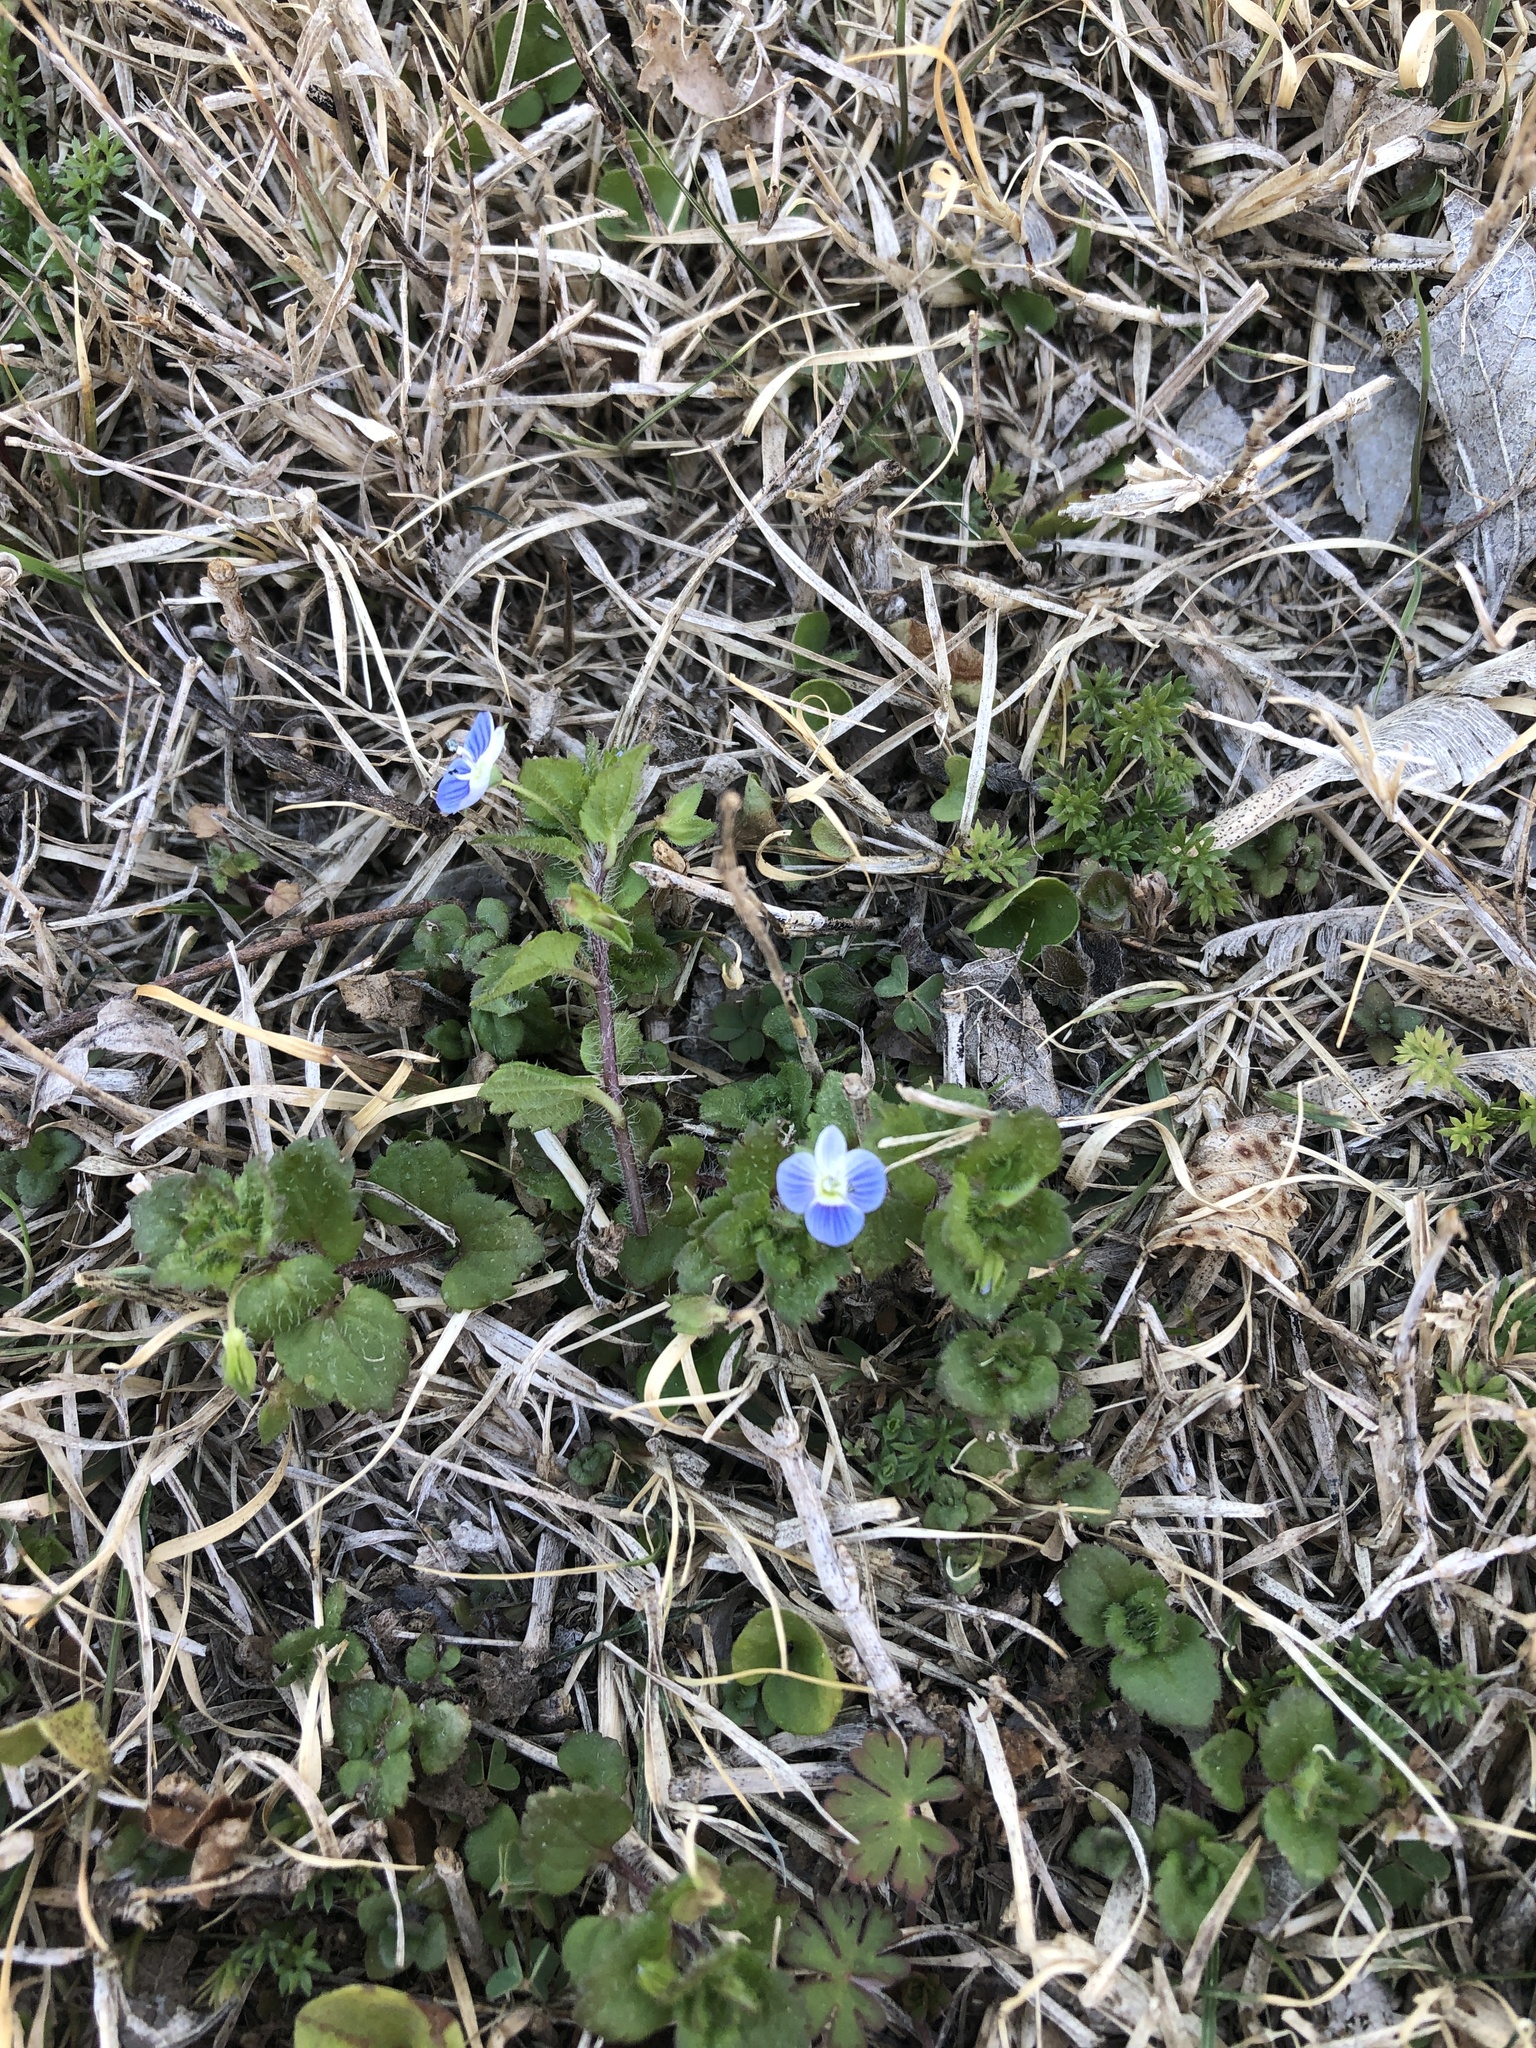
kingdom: Plantae
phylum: Tracheophyta
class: Magnoliopsida
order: Lamiales
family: Plantaginaceae
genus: Veronica
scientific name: Veronica persica
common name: Common field-speedwell
